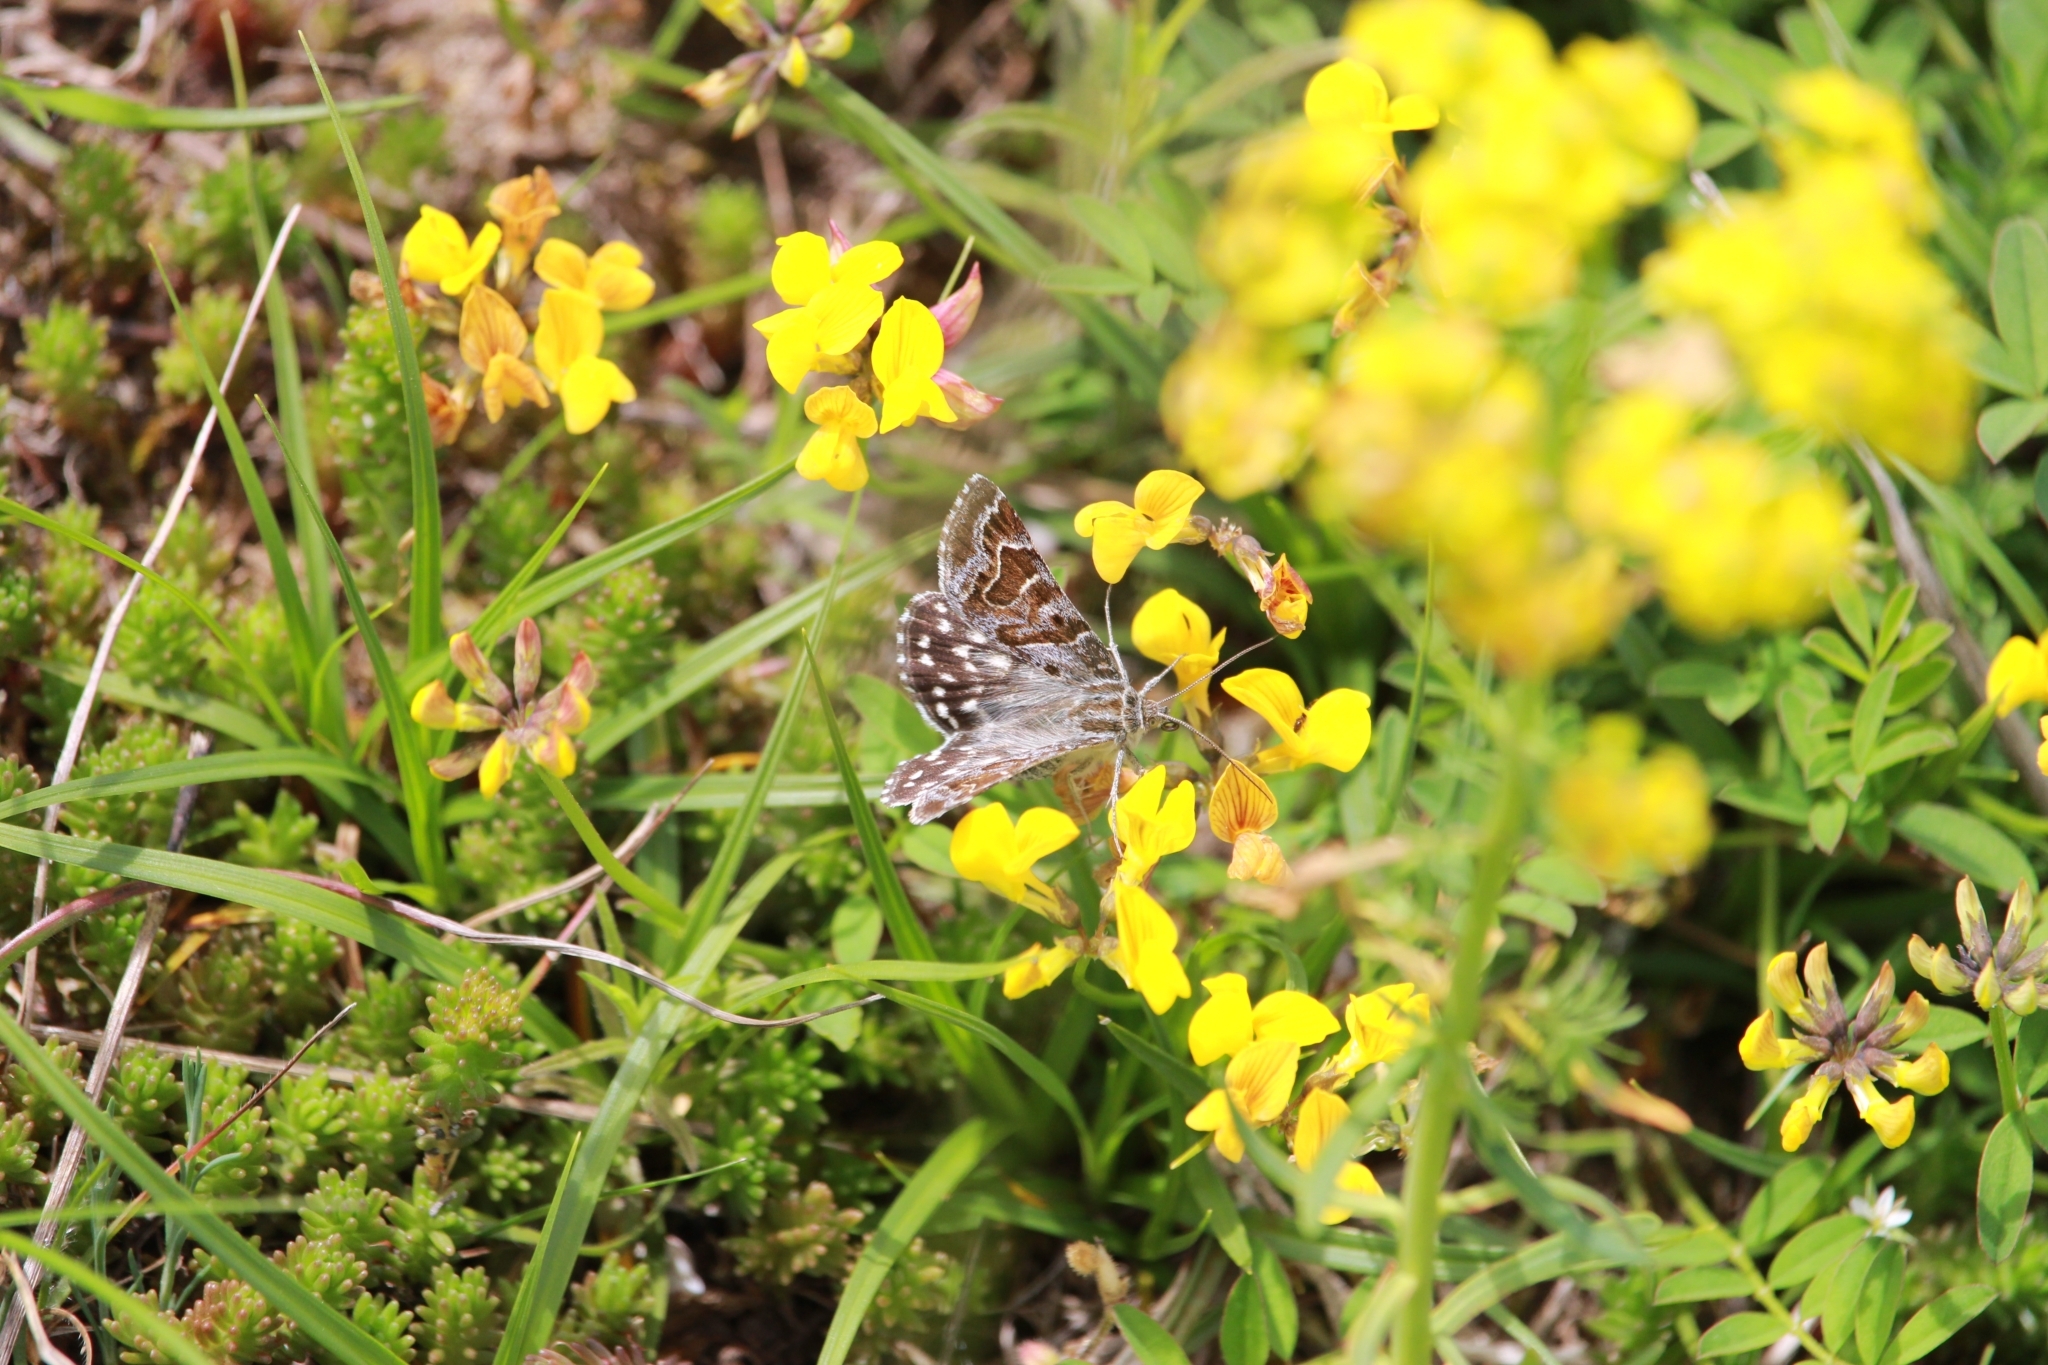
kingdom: Animalia
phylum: Arthropoda
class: Insecta
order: Lepidoptera
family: Erebidae
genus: Callistege
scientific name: Callistege mi
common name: Mother shipton
